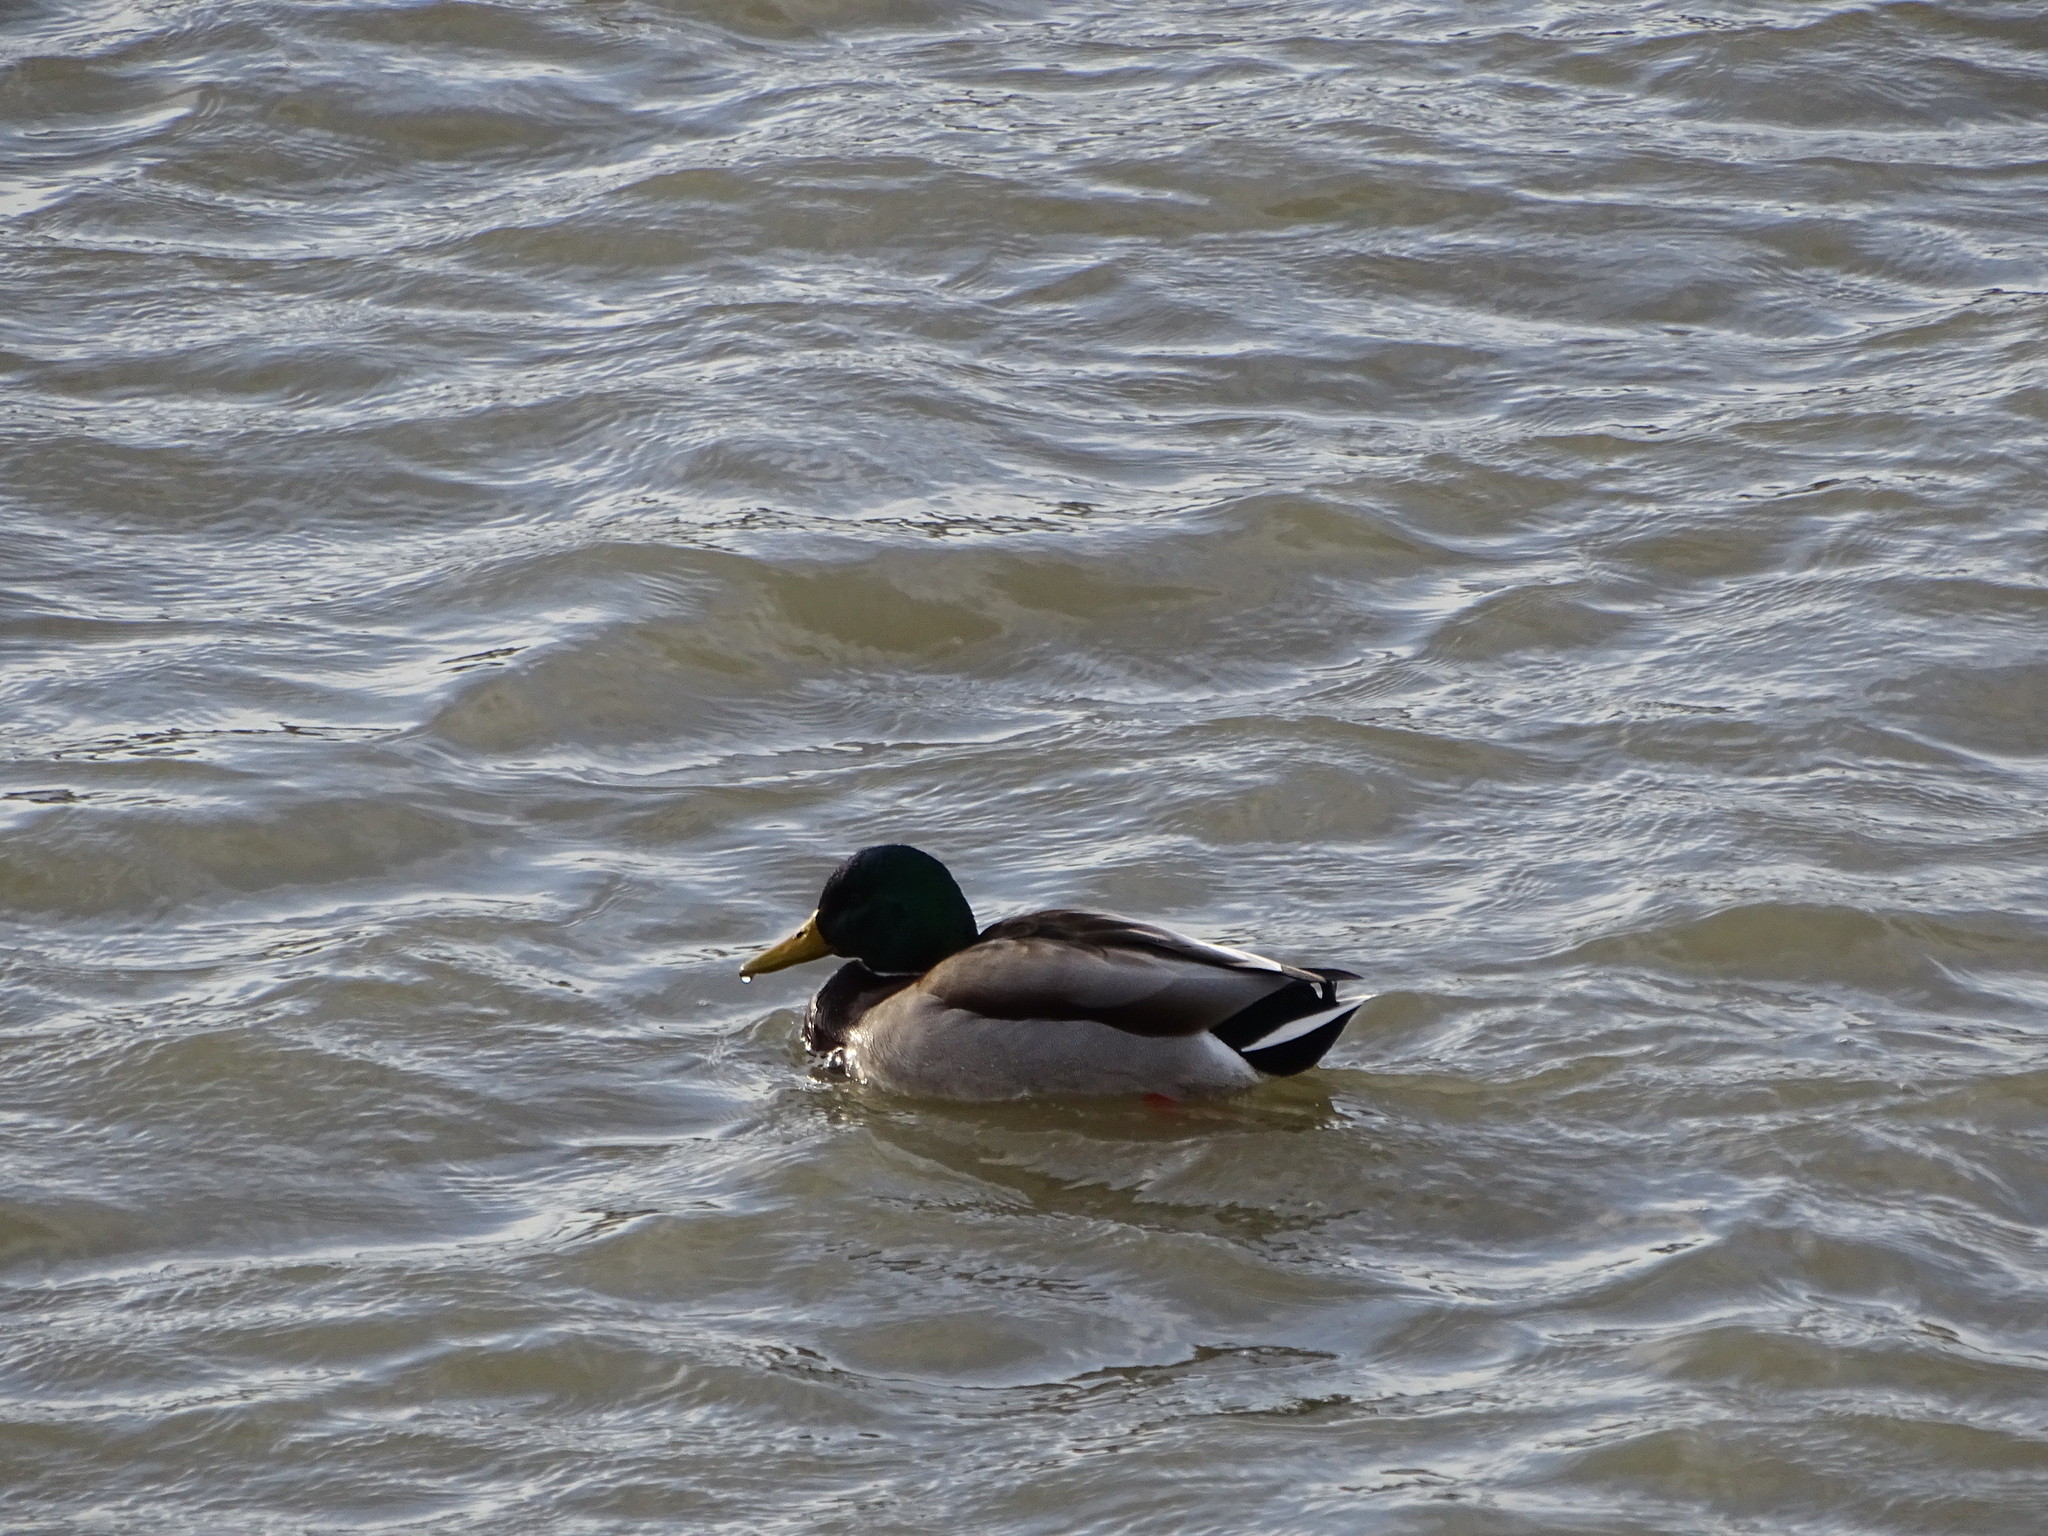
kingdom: Animalia
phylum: Chordata
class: Aves
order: Anseriformes
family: Anatidae
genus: Anas
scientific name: Anas platyrhynchos
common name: Mallard
